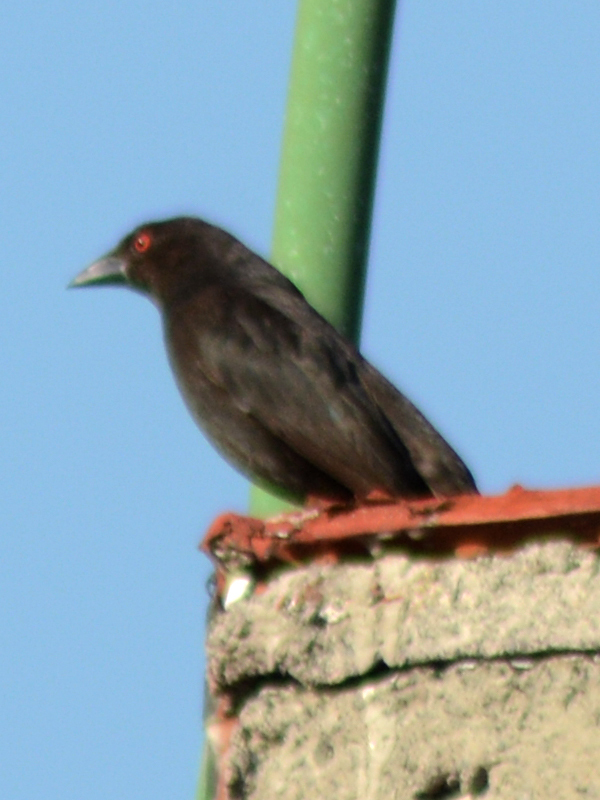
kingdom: Animalia
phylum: Chordata
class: Aves
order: Passeriformes
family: Icteridae
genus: Molothrus
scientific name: Molothrus aeneus
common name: Bronzed cowbird
